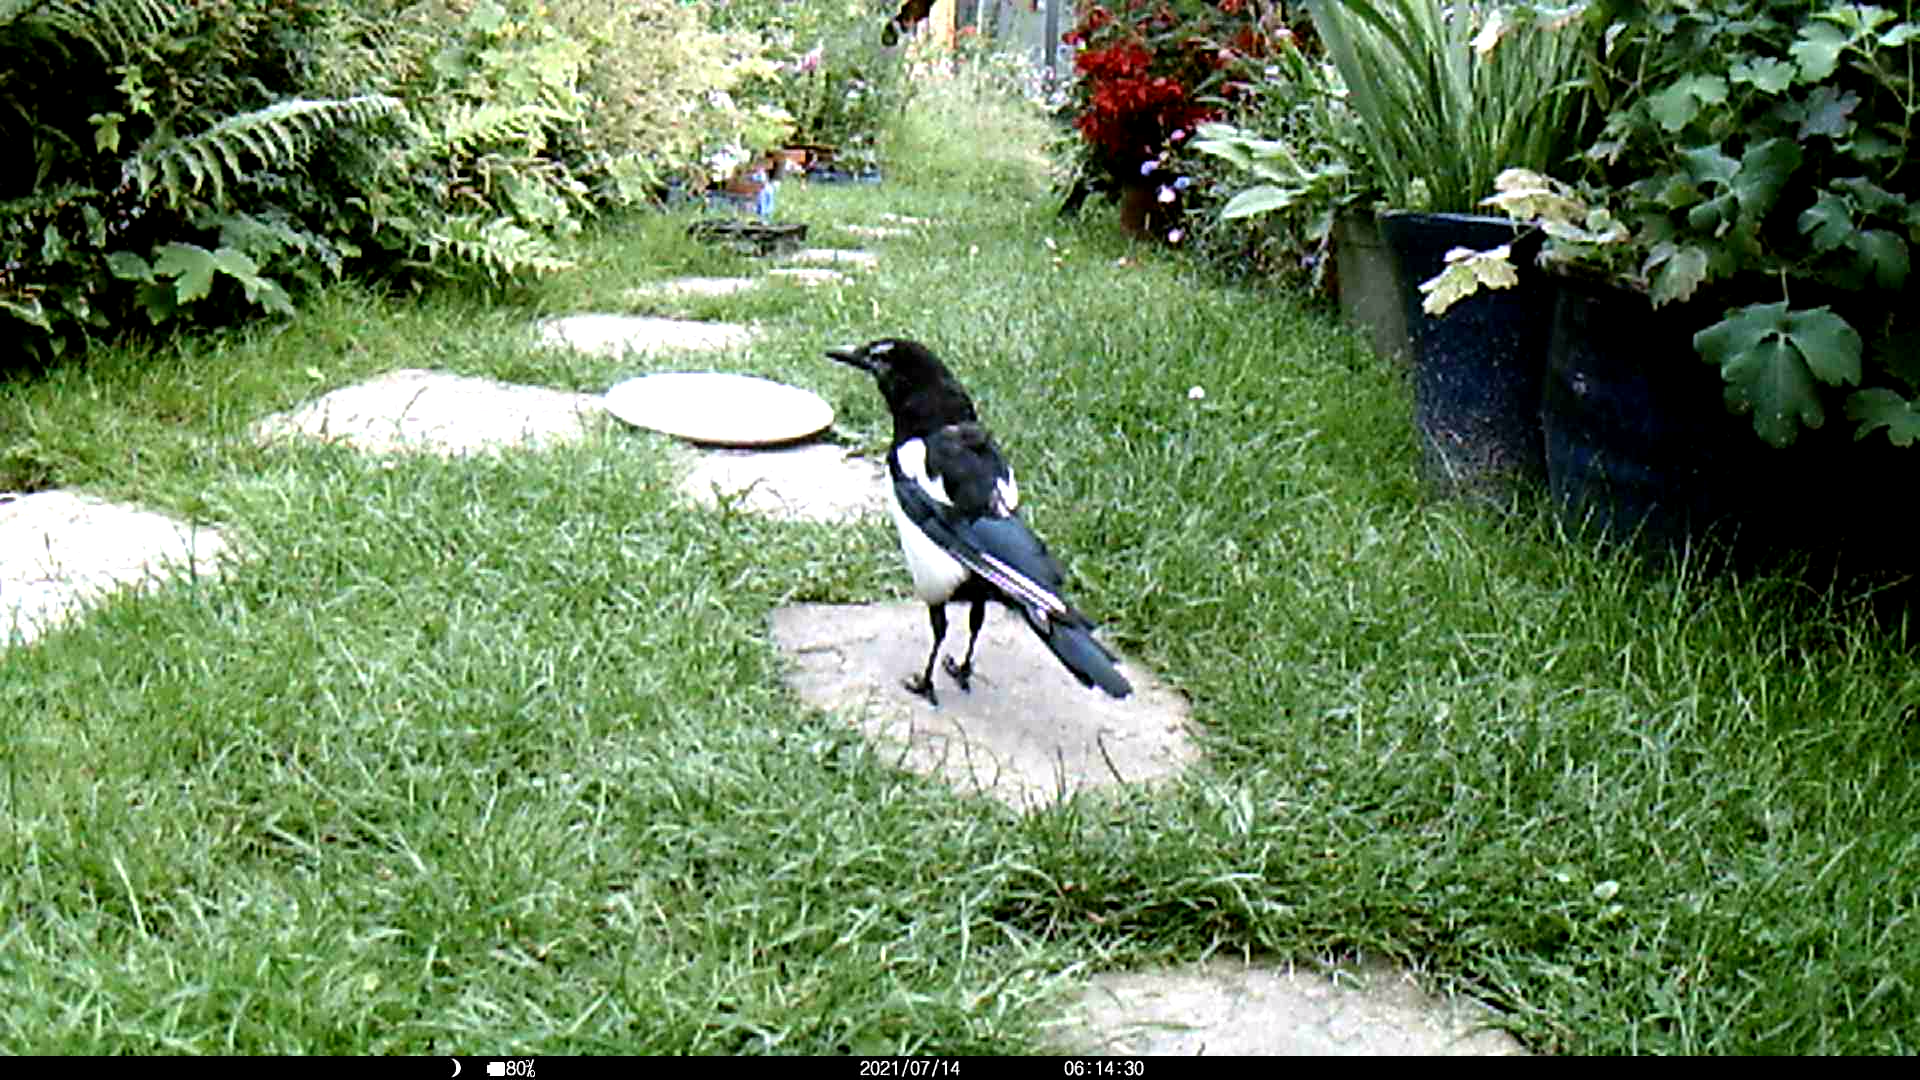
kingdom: Animalia
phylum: Chordata
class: Aves
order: Passeriformes
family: Corvidae
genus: Pica
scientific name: Pica pica
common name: Eurasian magpie
